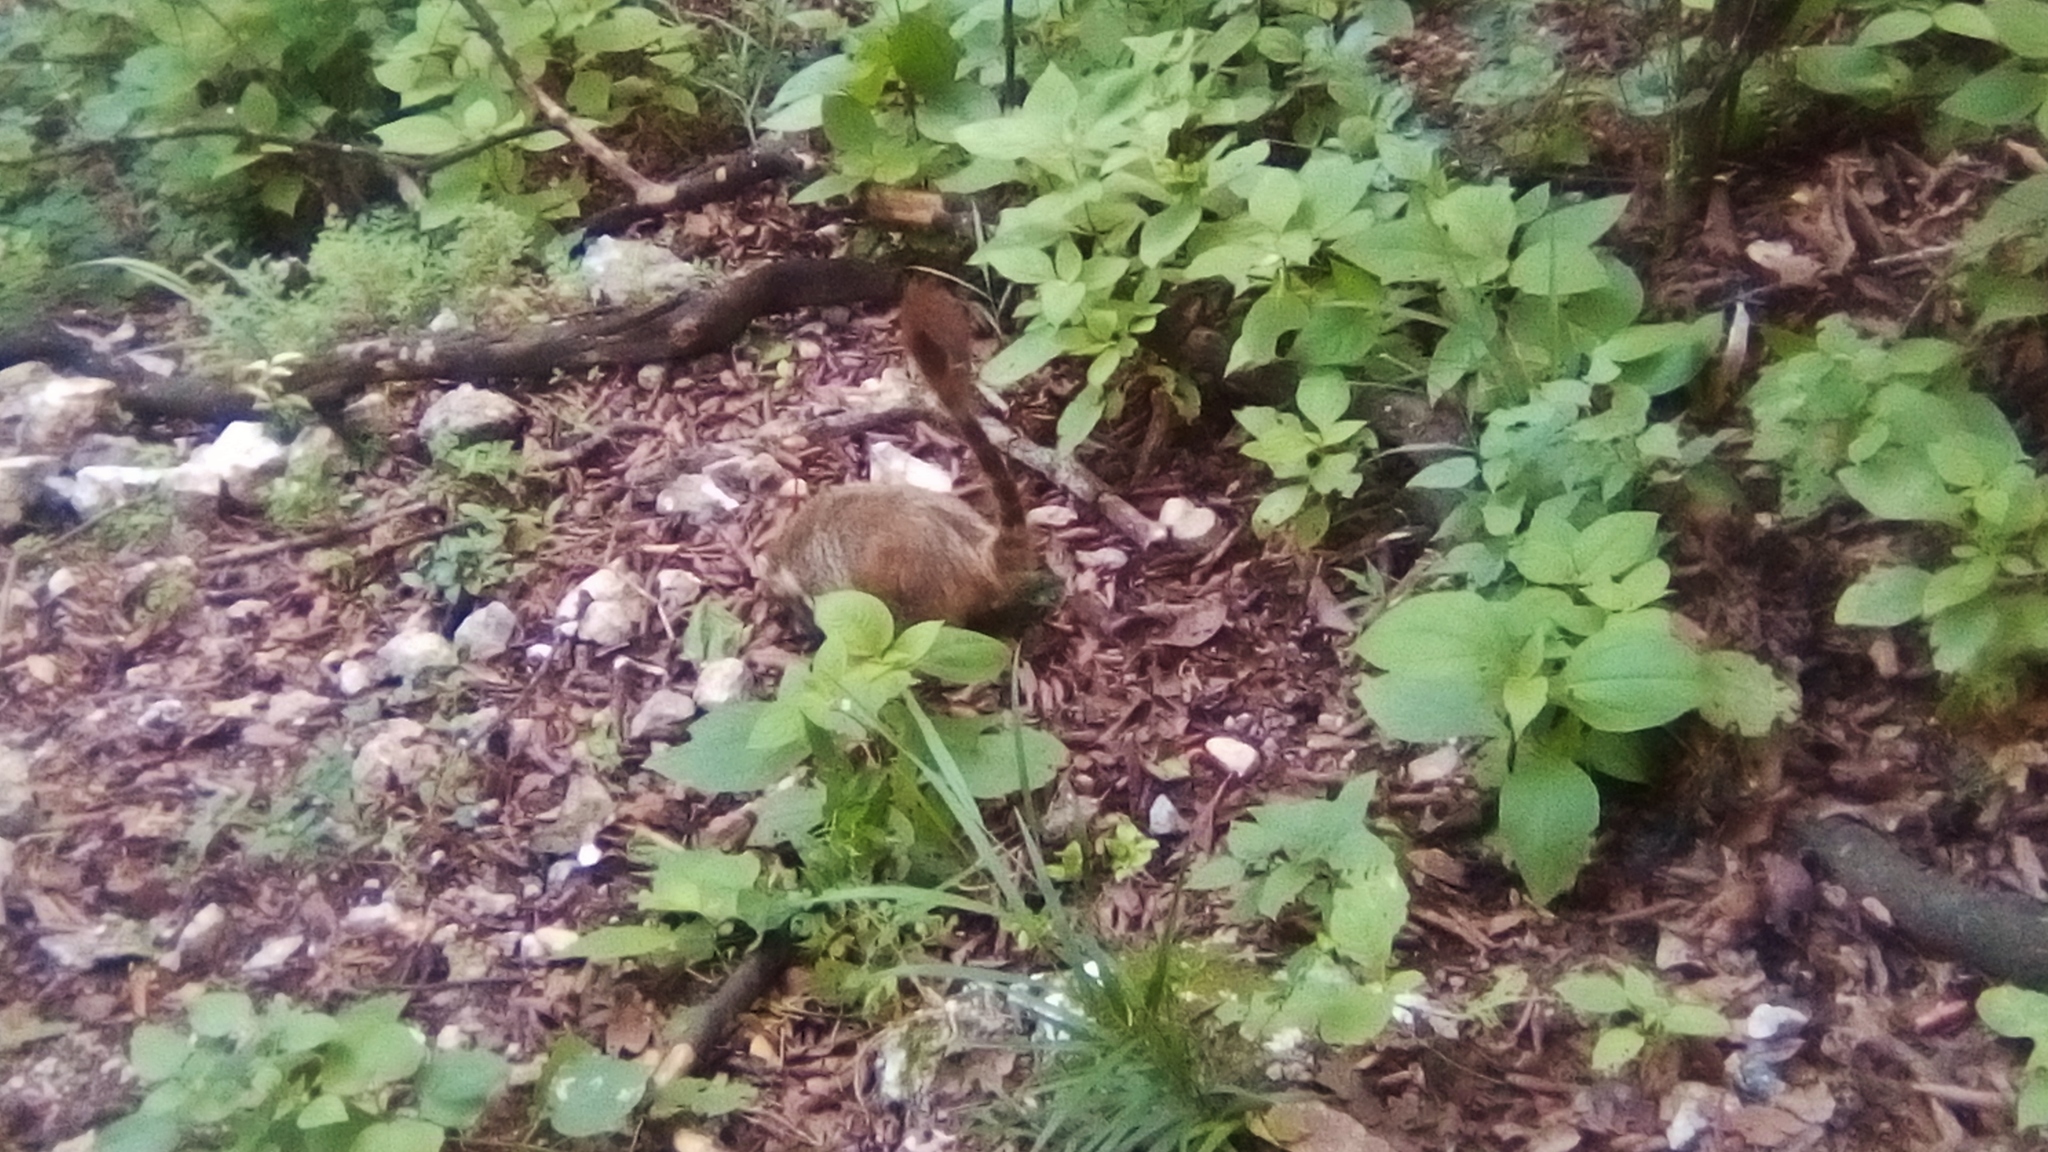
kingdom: Animalia
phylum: Chordata
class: Mammalia
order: Carnivora
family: Procyonidae
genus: Nasua
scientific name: Nasua narica
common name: White-nosed coati
